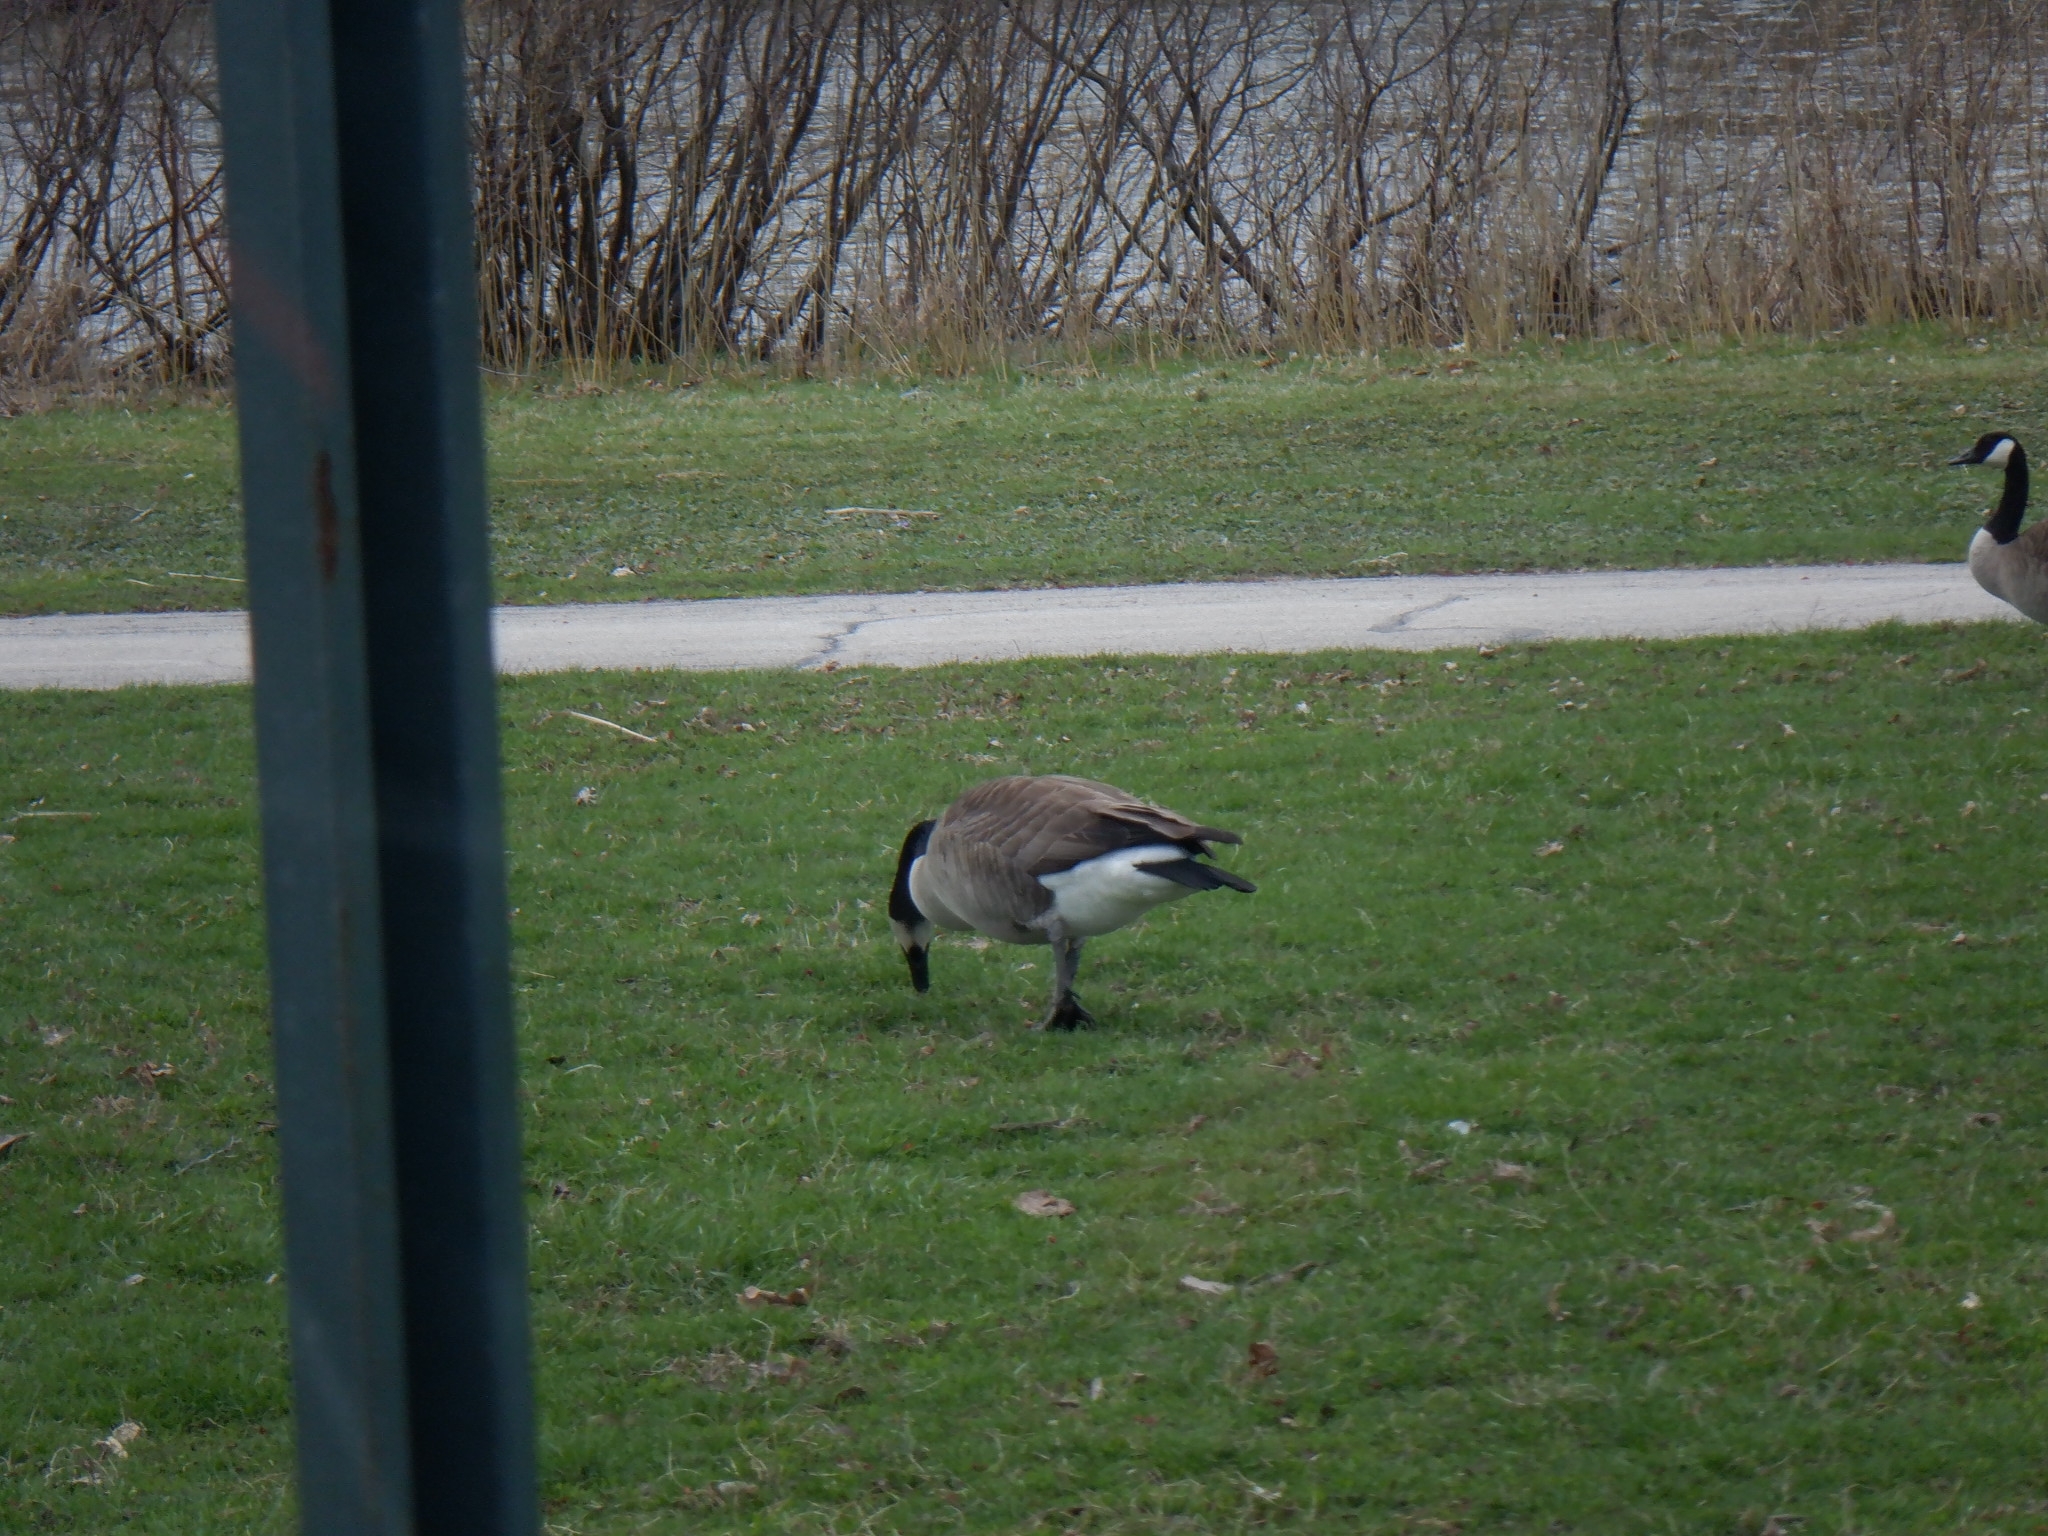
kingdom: Animalia
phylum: Chordata
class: Aves
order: Anseriformes
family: Anatidae
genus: Branta
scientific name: Branta canadensis
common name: Canada goose
